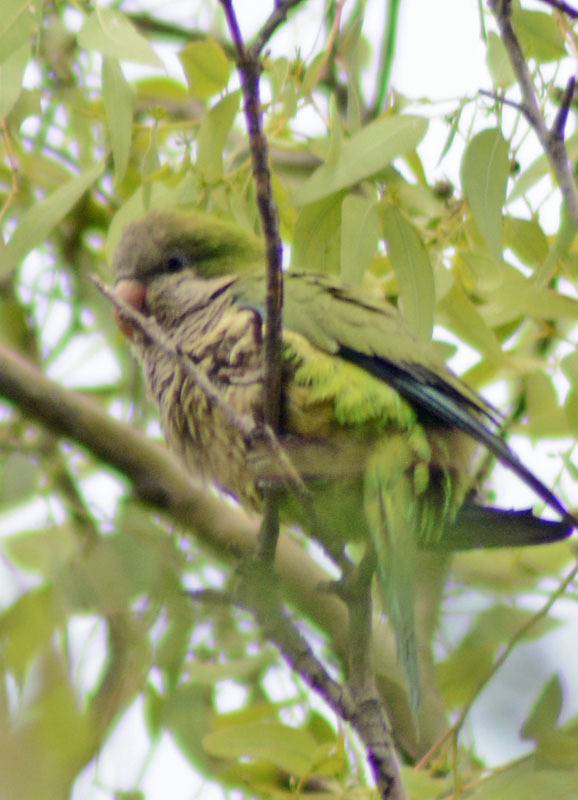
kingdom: Animalia
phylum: Chordata
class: Aves
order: Psittaciformes
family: Psittacidae
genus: Myiopsitta
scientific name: Myiopsitta monachus
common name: Monk parakeet
